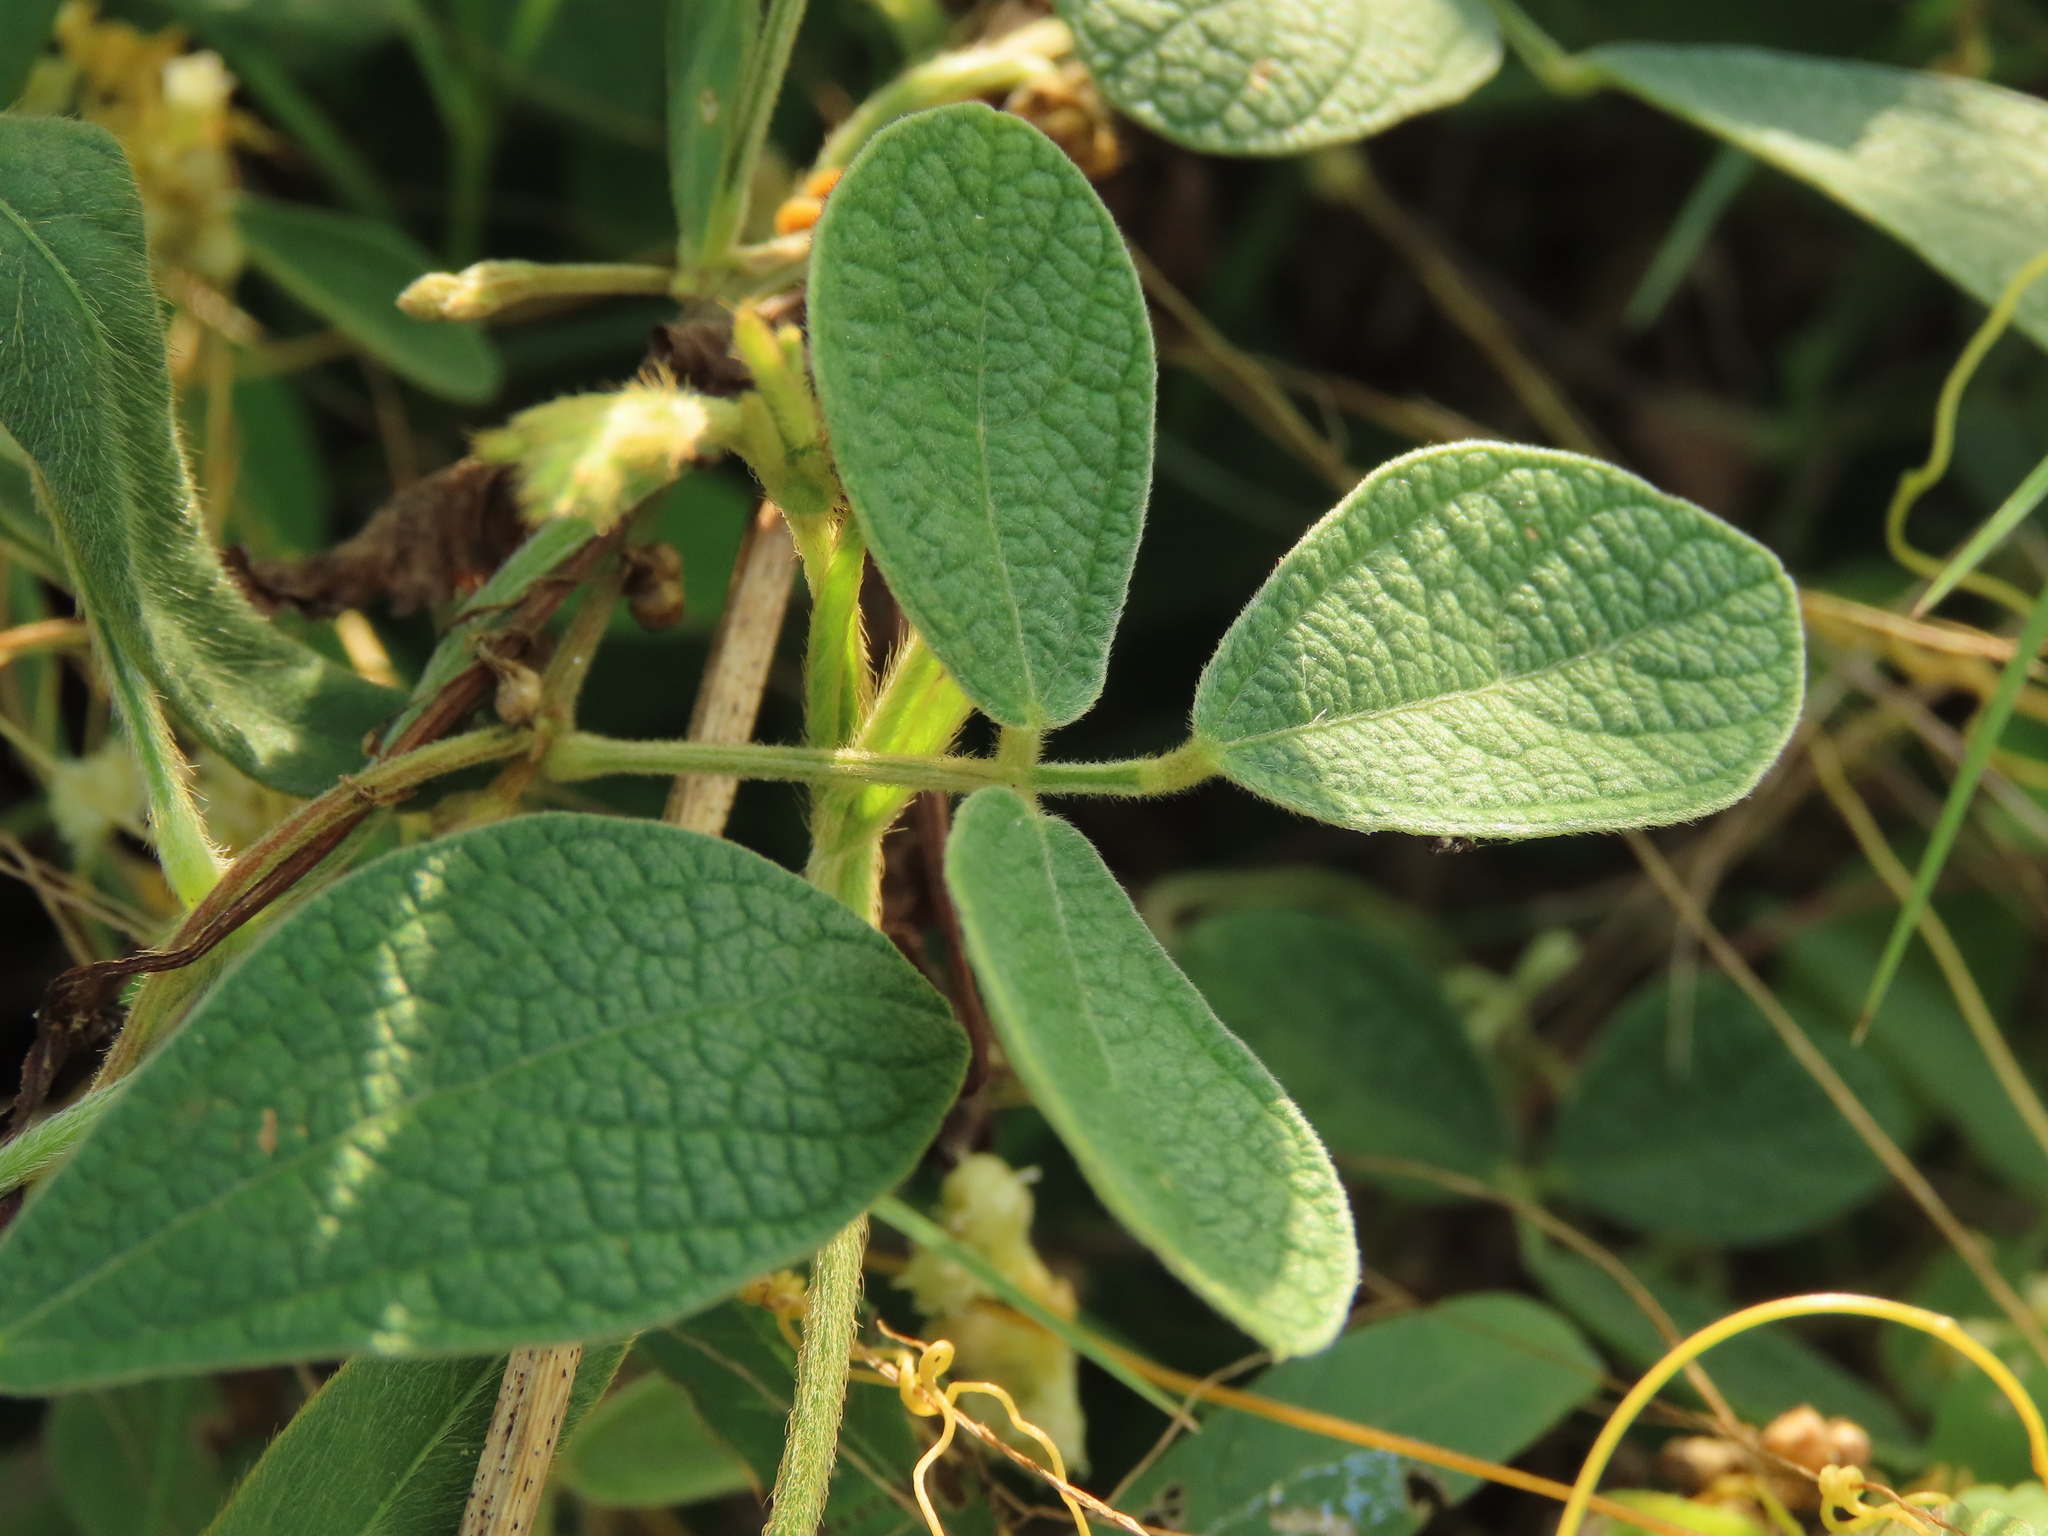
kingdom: Plantae
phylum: Tracheophyta
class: Magnoliopsida
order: Fabales
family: Fabaceae
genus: Cajanus
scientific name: Cajanus scarabaeoides
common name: Showy pigeonpea
